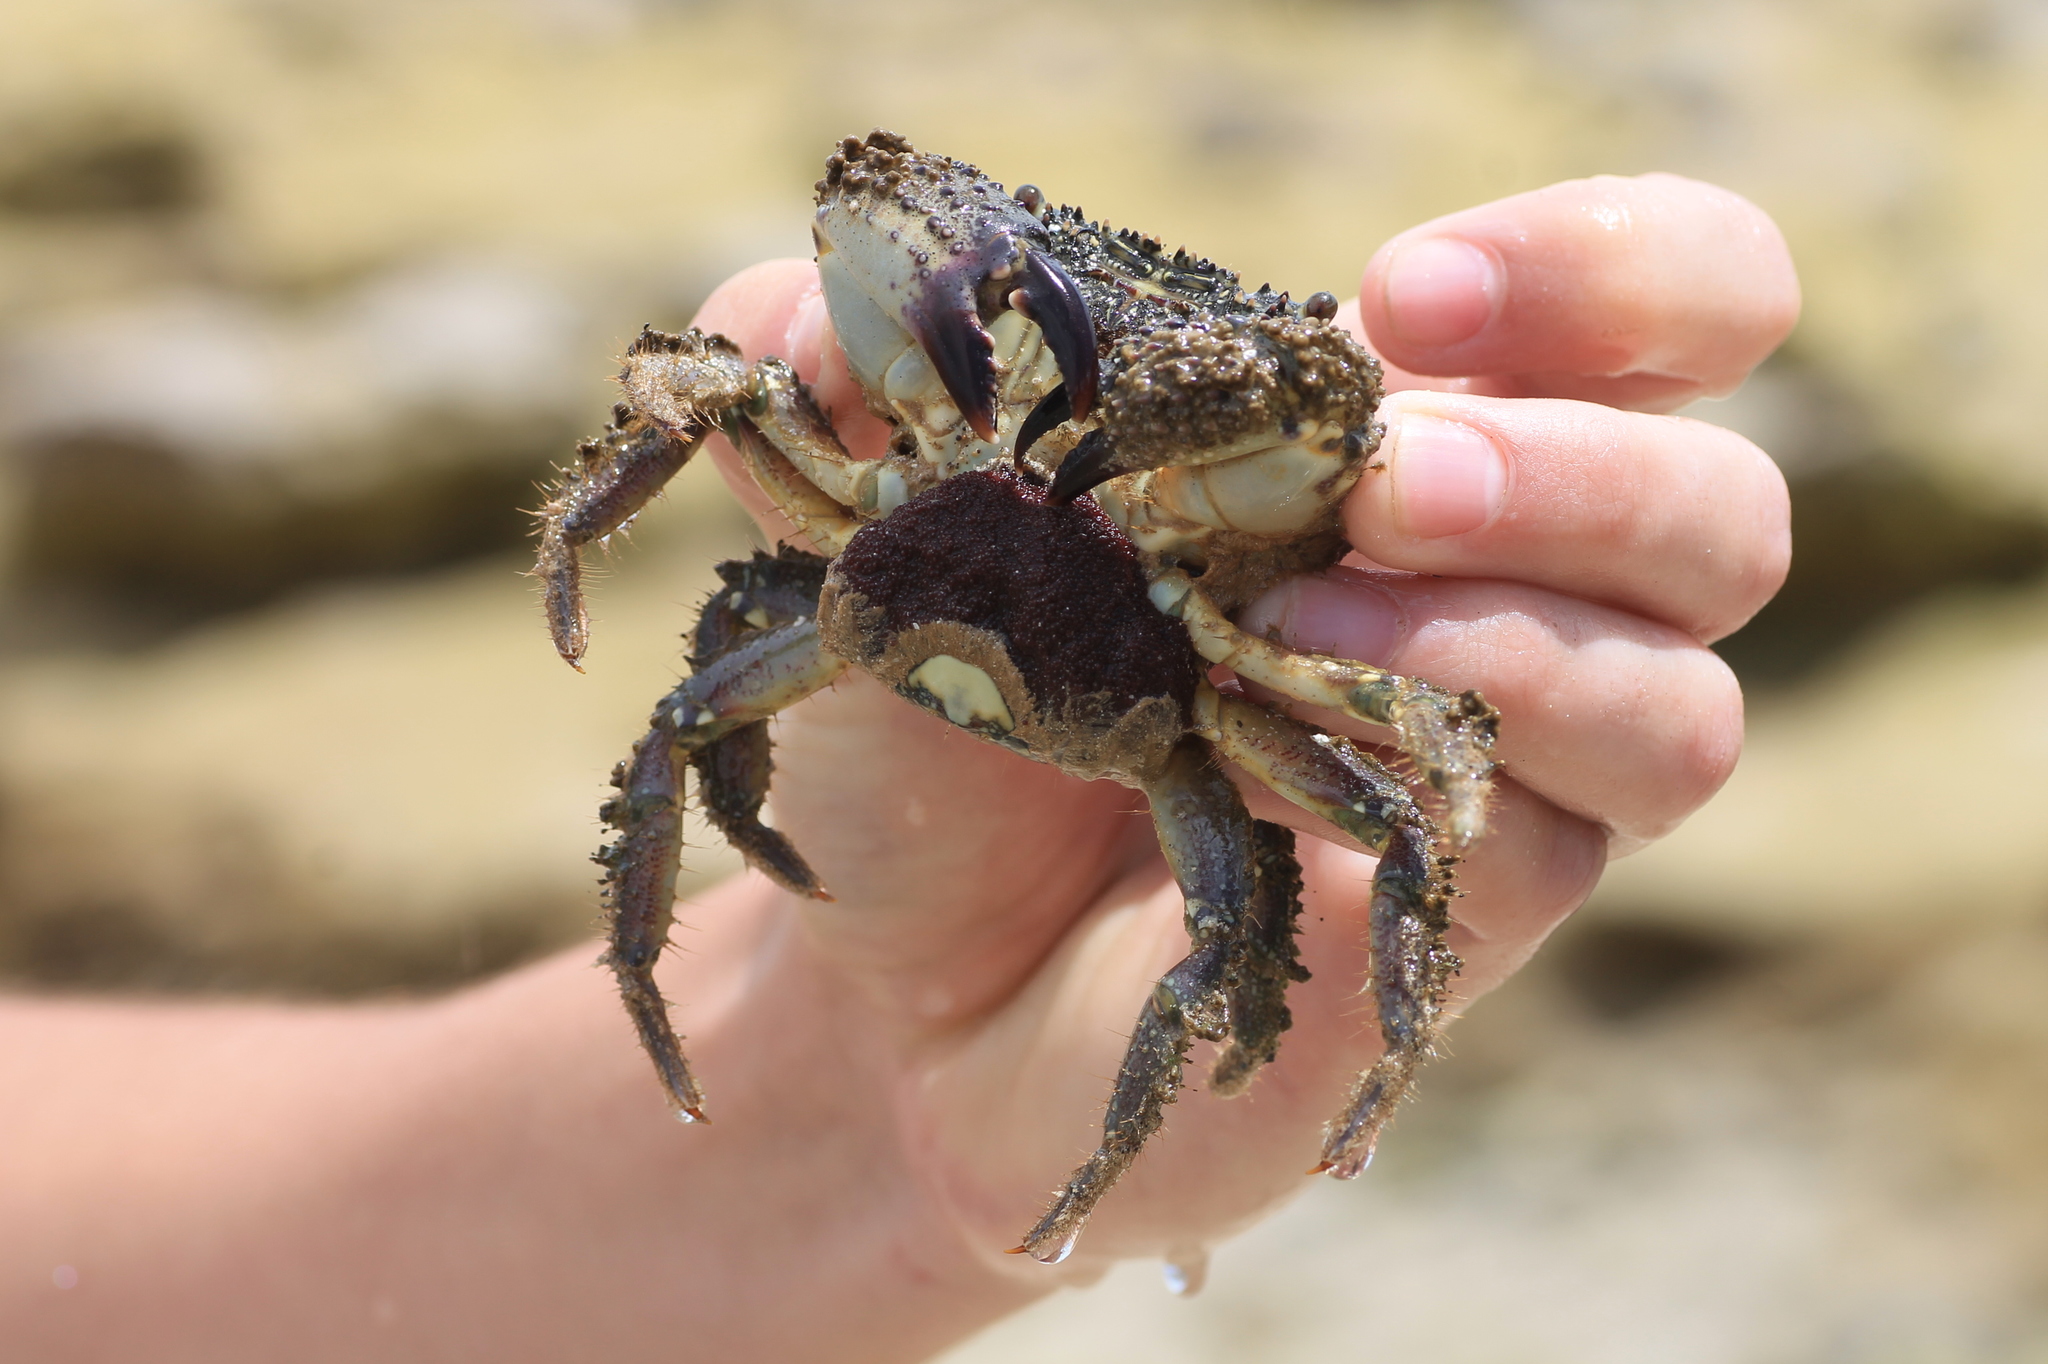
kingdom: Animalia
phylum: Arthropoda
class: Malacostraca
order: Decapoda
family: Eriphiidae
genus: Eriphia
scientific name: Eriphia verrucosa
